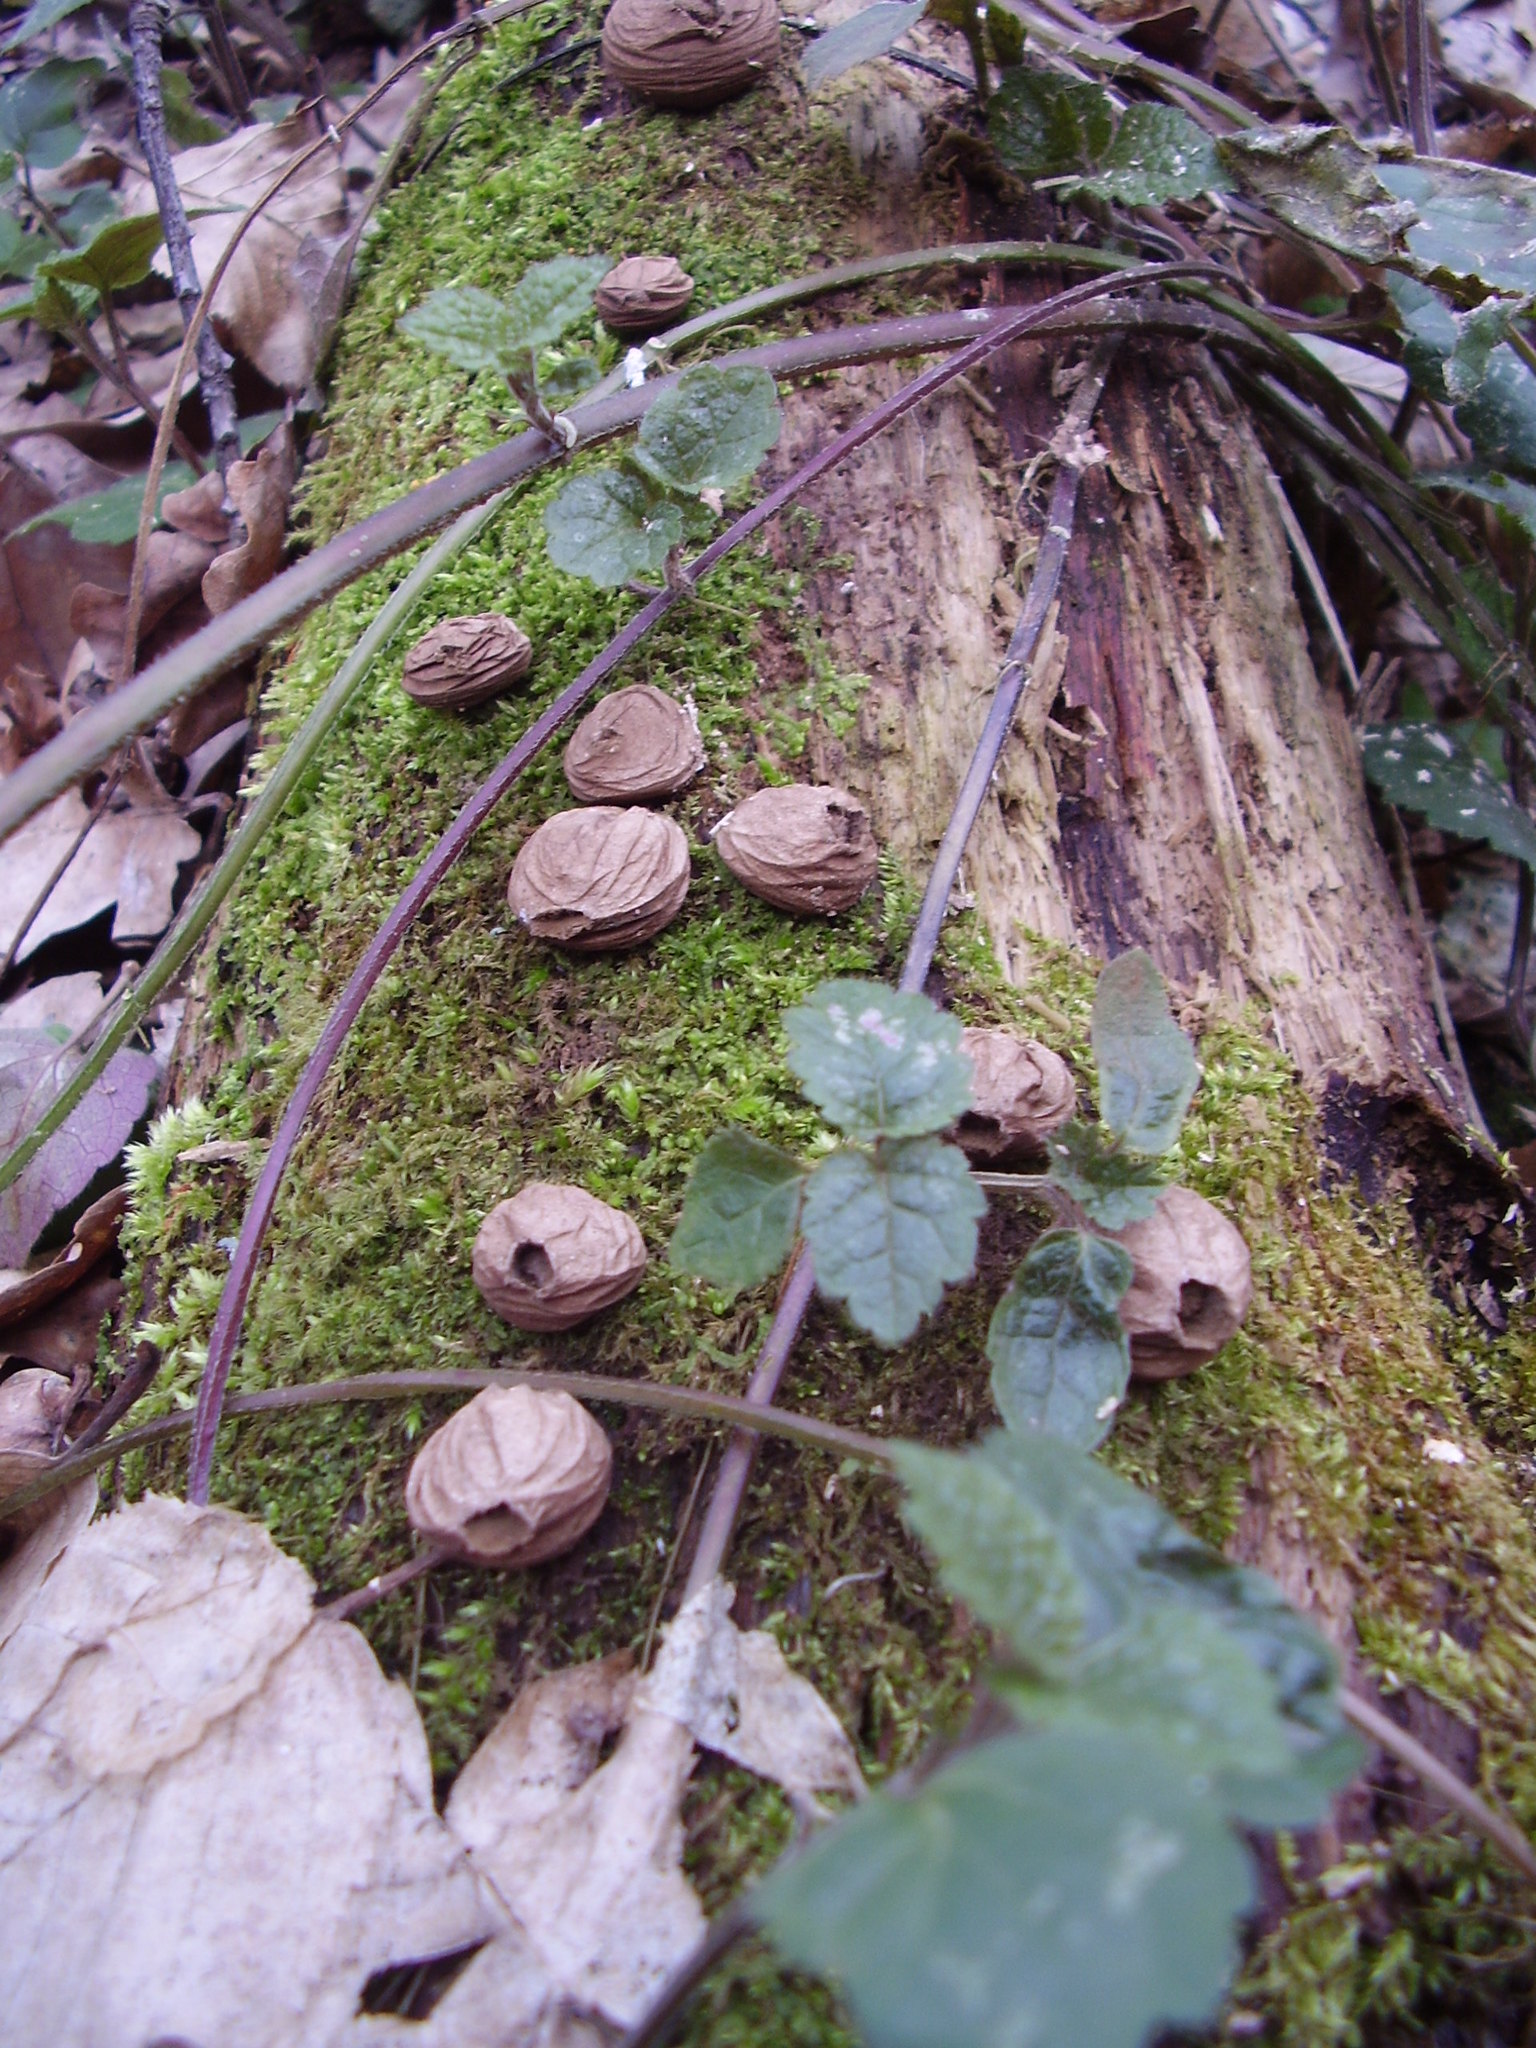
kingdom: Fungi
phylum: Basidiomycota
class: Agaricomycetes
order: Agaricales
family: Lycoperdaceae
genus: Apioperdon
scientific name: Apioperdon pyriforme
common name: Pear-shaped puffball
